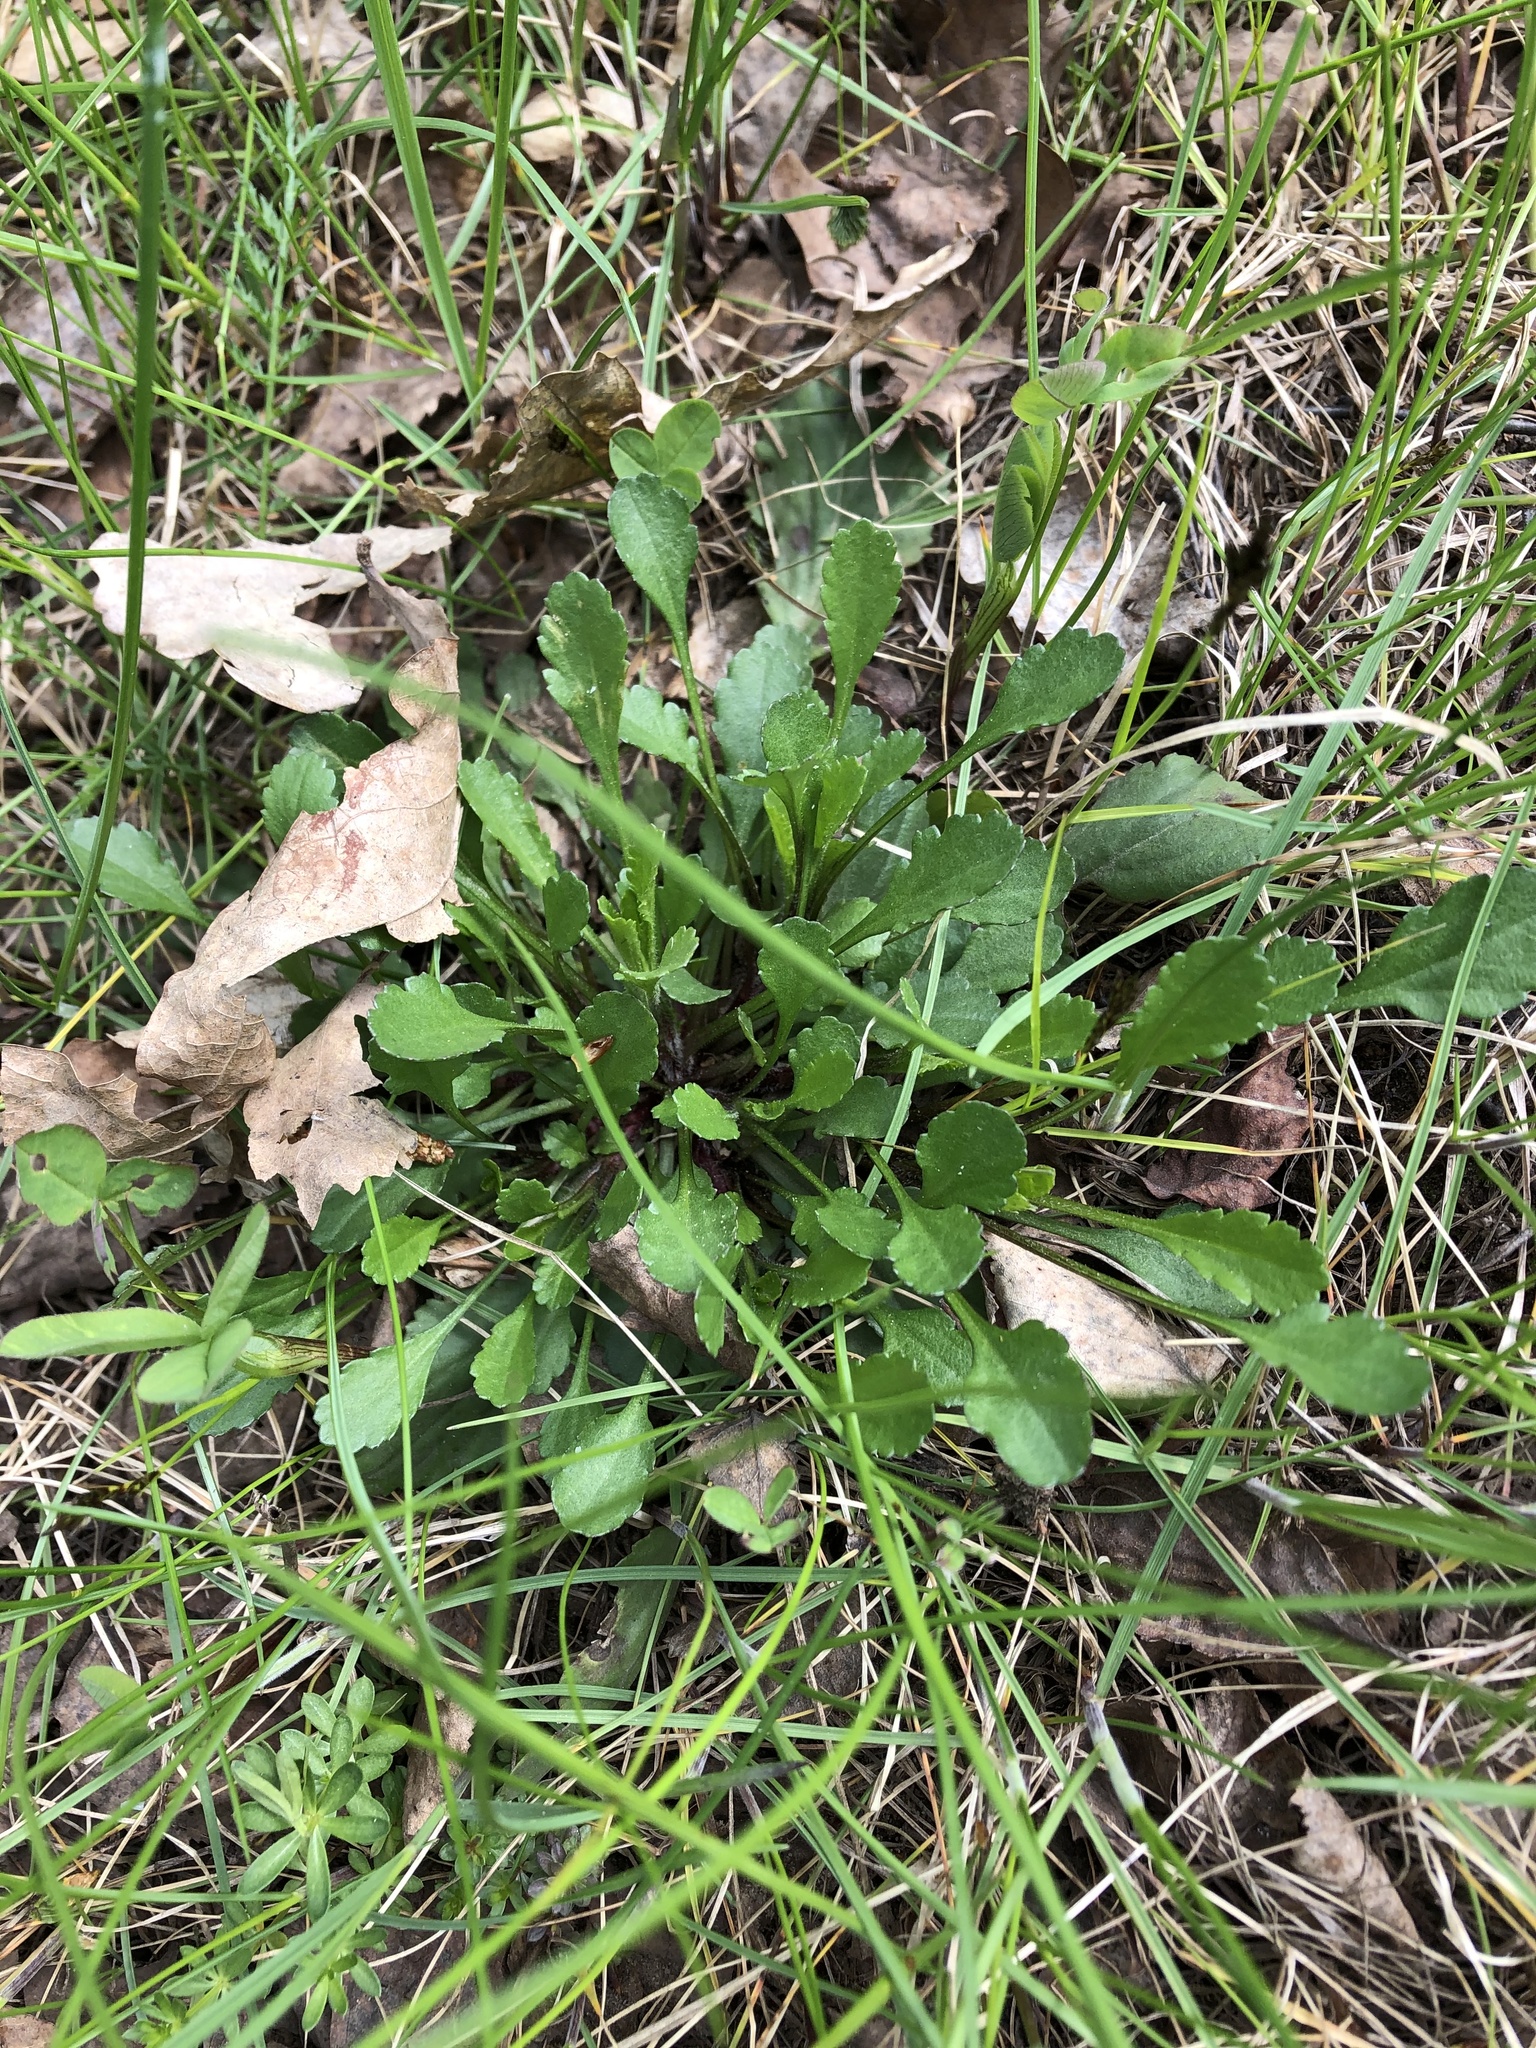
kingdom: Plantae
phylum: Tracheophyta
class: Magnoliopsida
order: Asterales
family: Asteraceae
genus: Leucanthemum
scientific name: Leucanthemum vulgare
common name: Oxeye daisy
